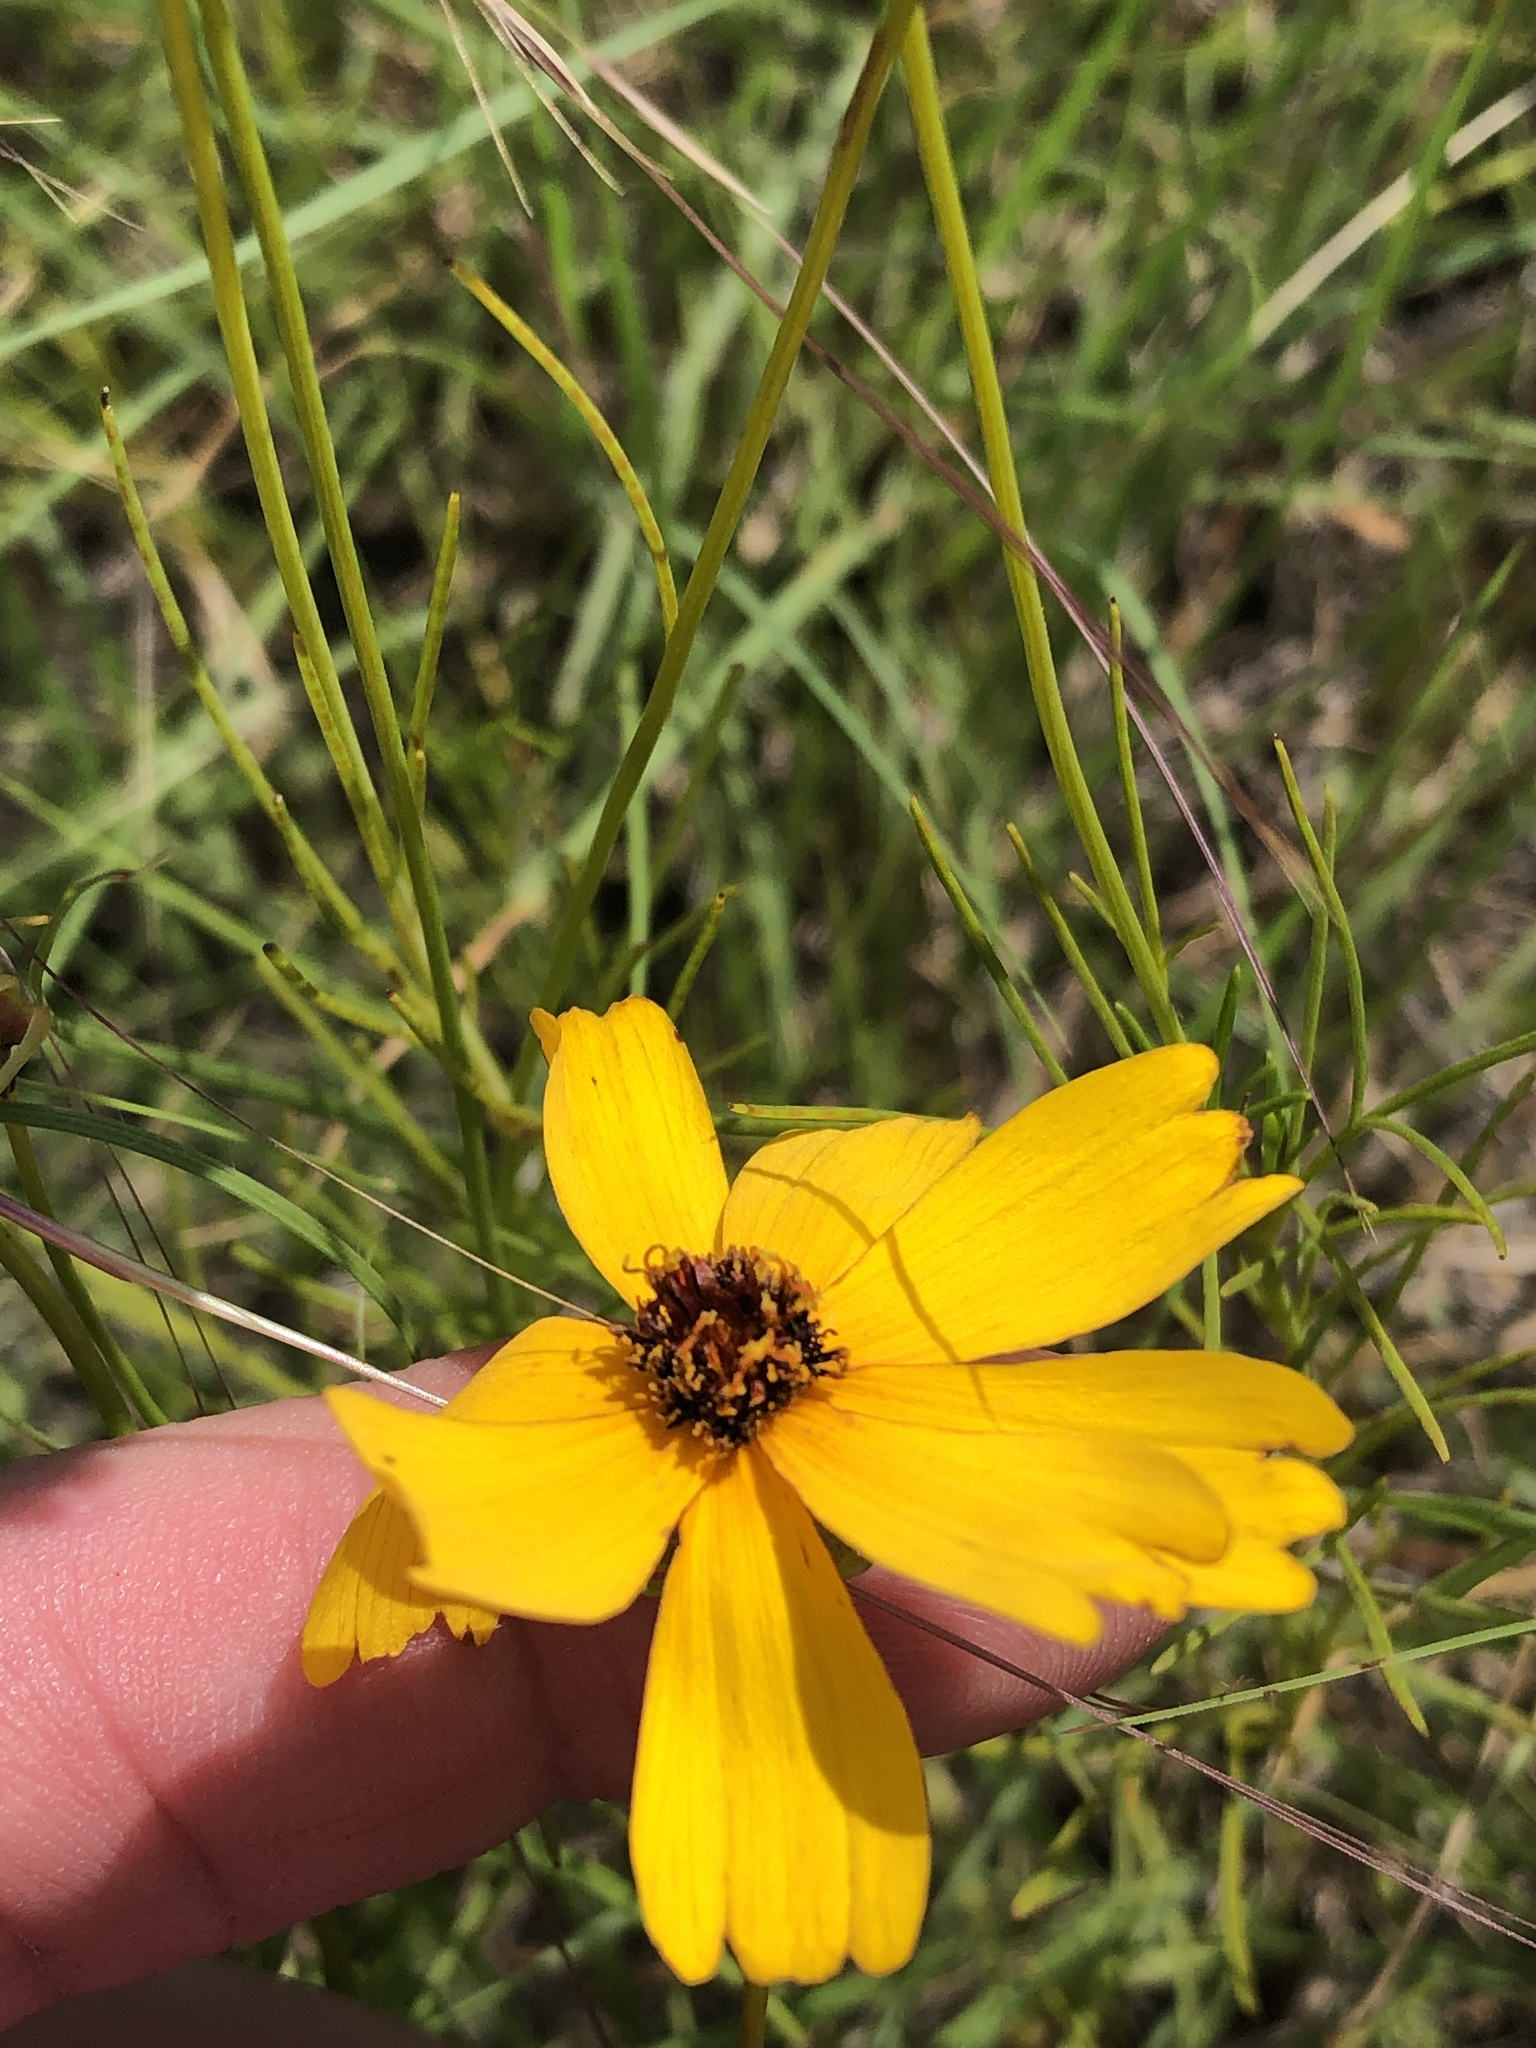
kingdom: Plantae
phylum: Tracheophyta
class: Magnoliopsida
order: Asterales
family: Asteraceae
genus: Thelesperma
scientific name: Thelesperma filifolium
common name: Stiff greenthread
